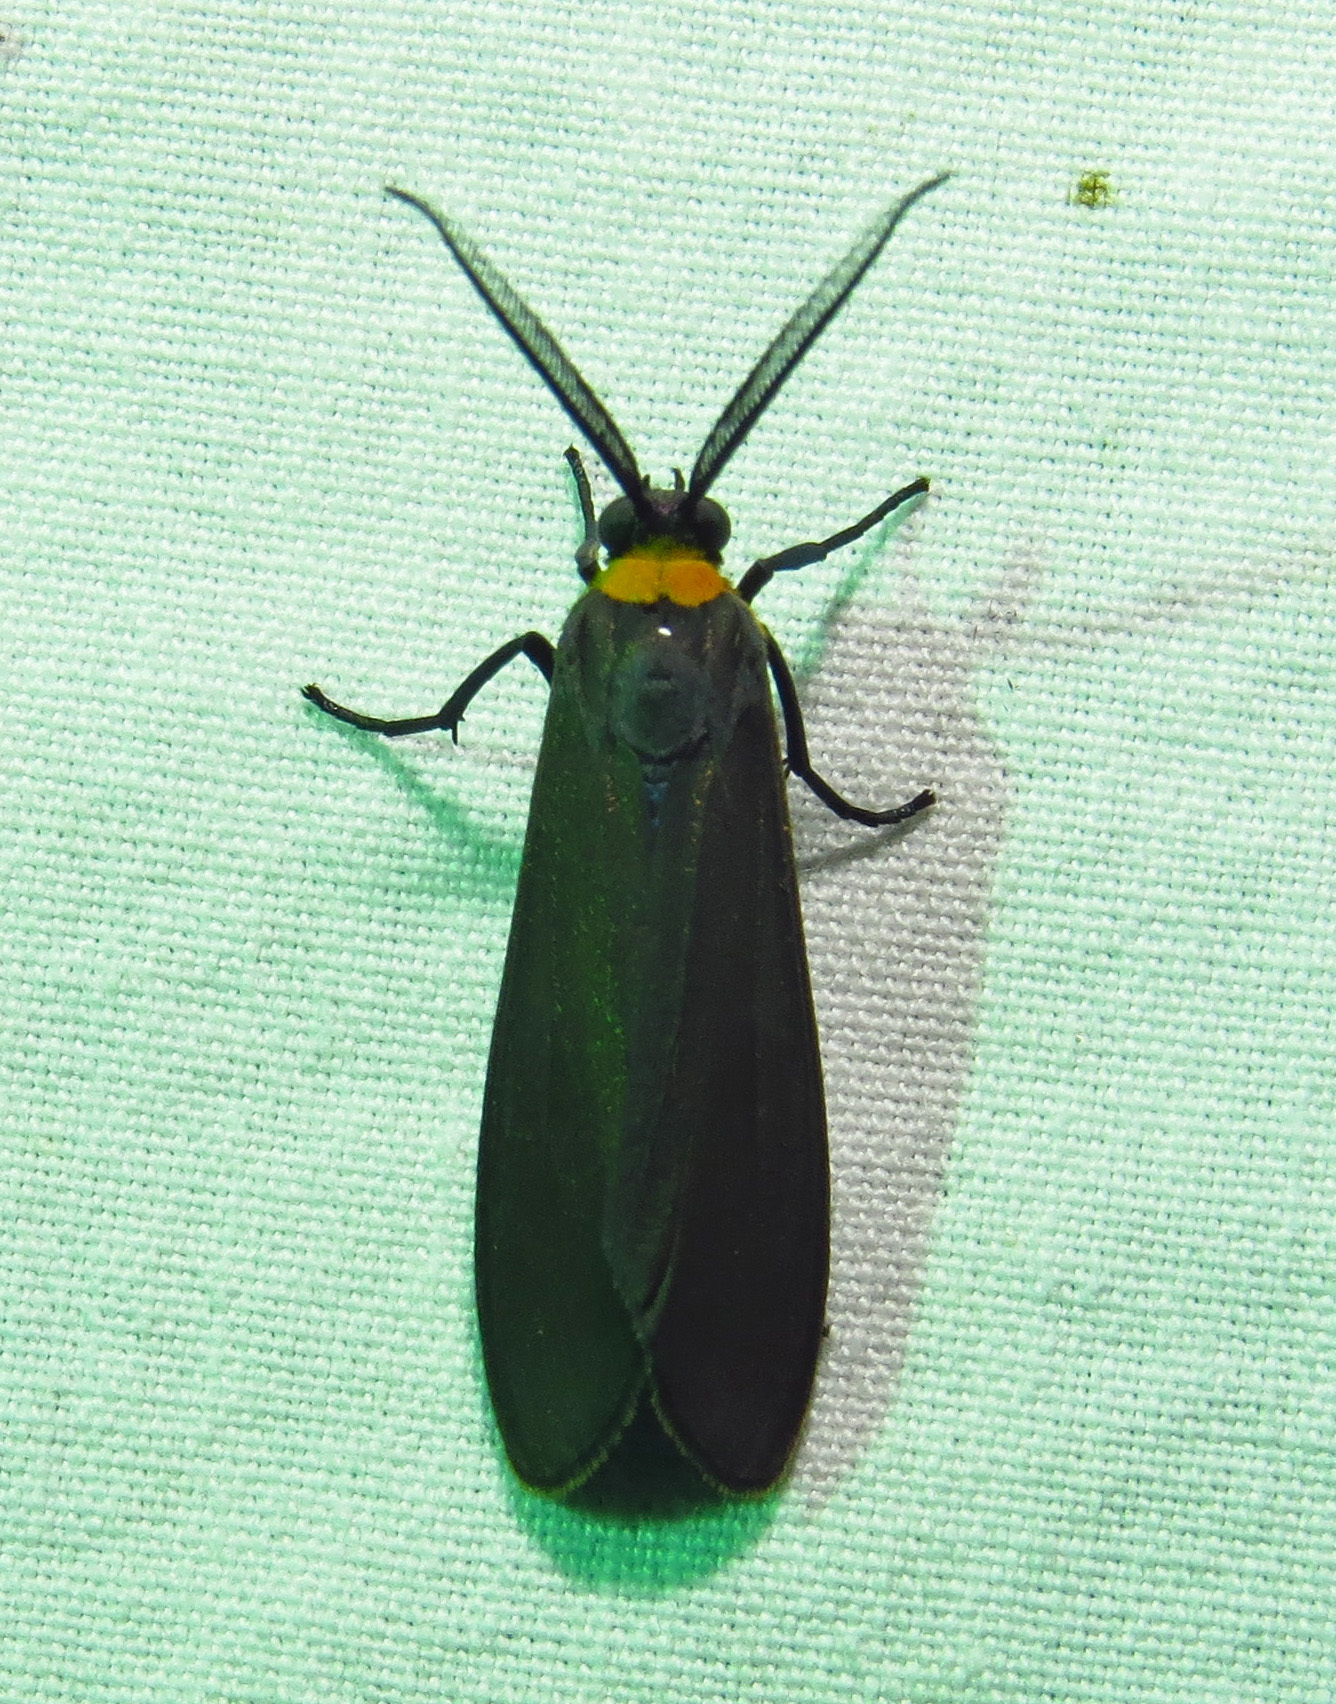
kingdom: Animalia
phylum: Arthropoda
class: Insecta
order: Lepidoptera
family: Erebidae
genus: Cisseps
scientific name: Cisseps fulvicollis
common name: Yellow-collared scape moth
